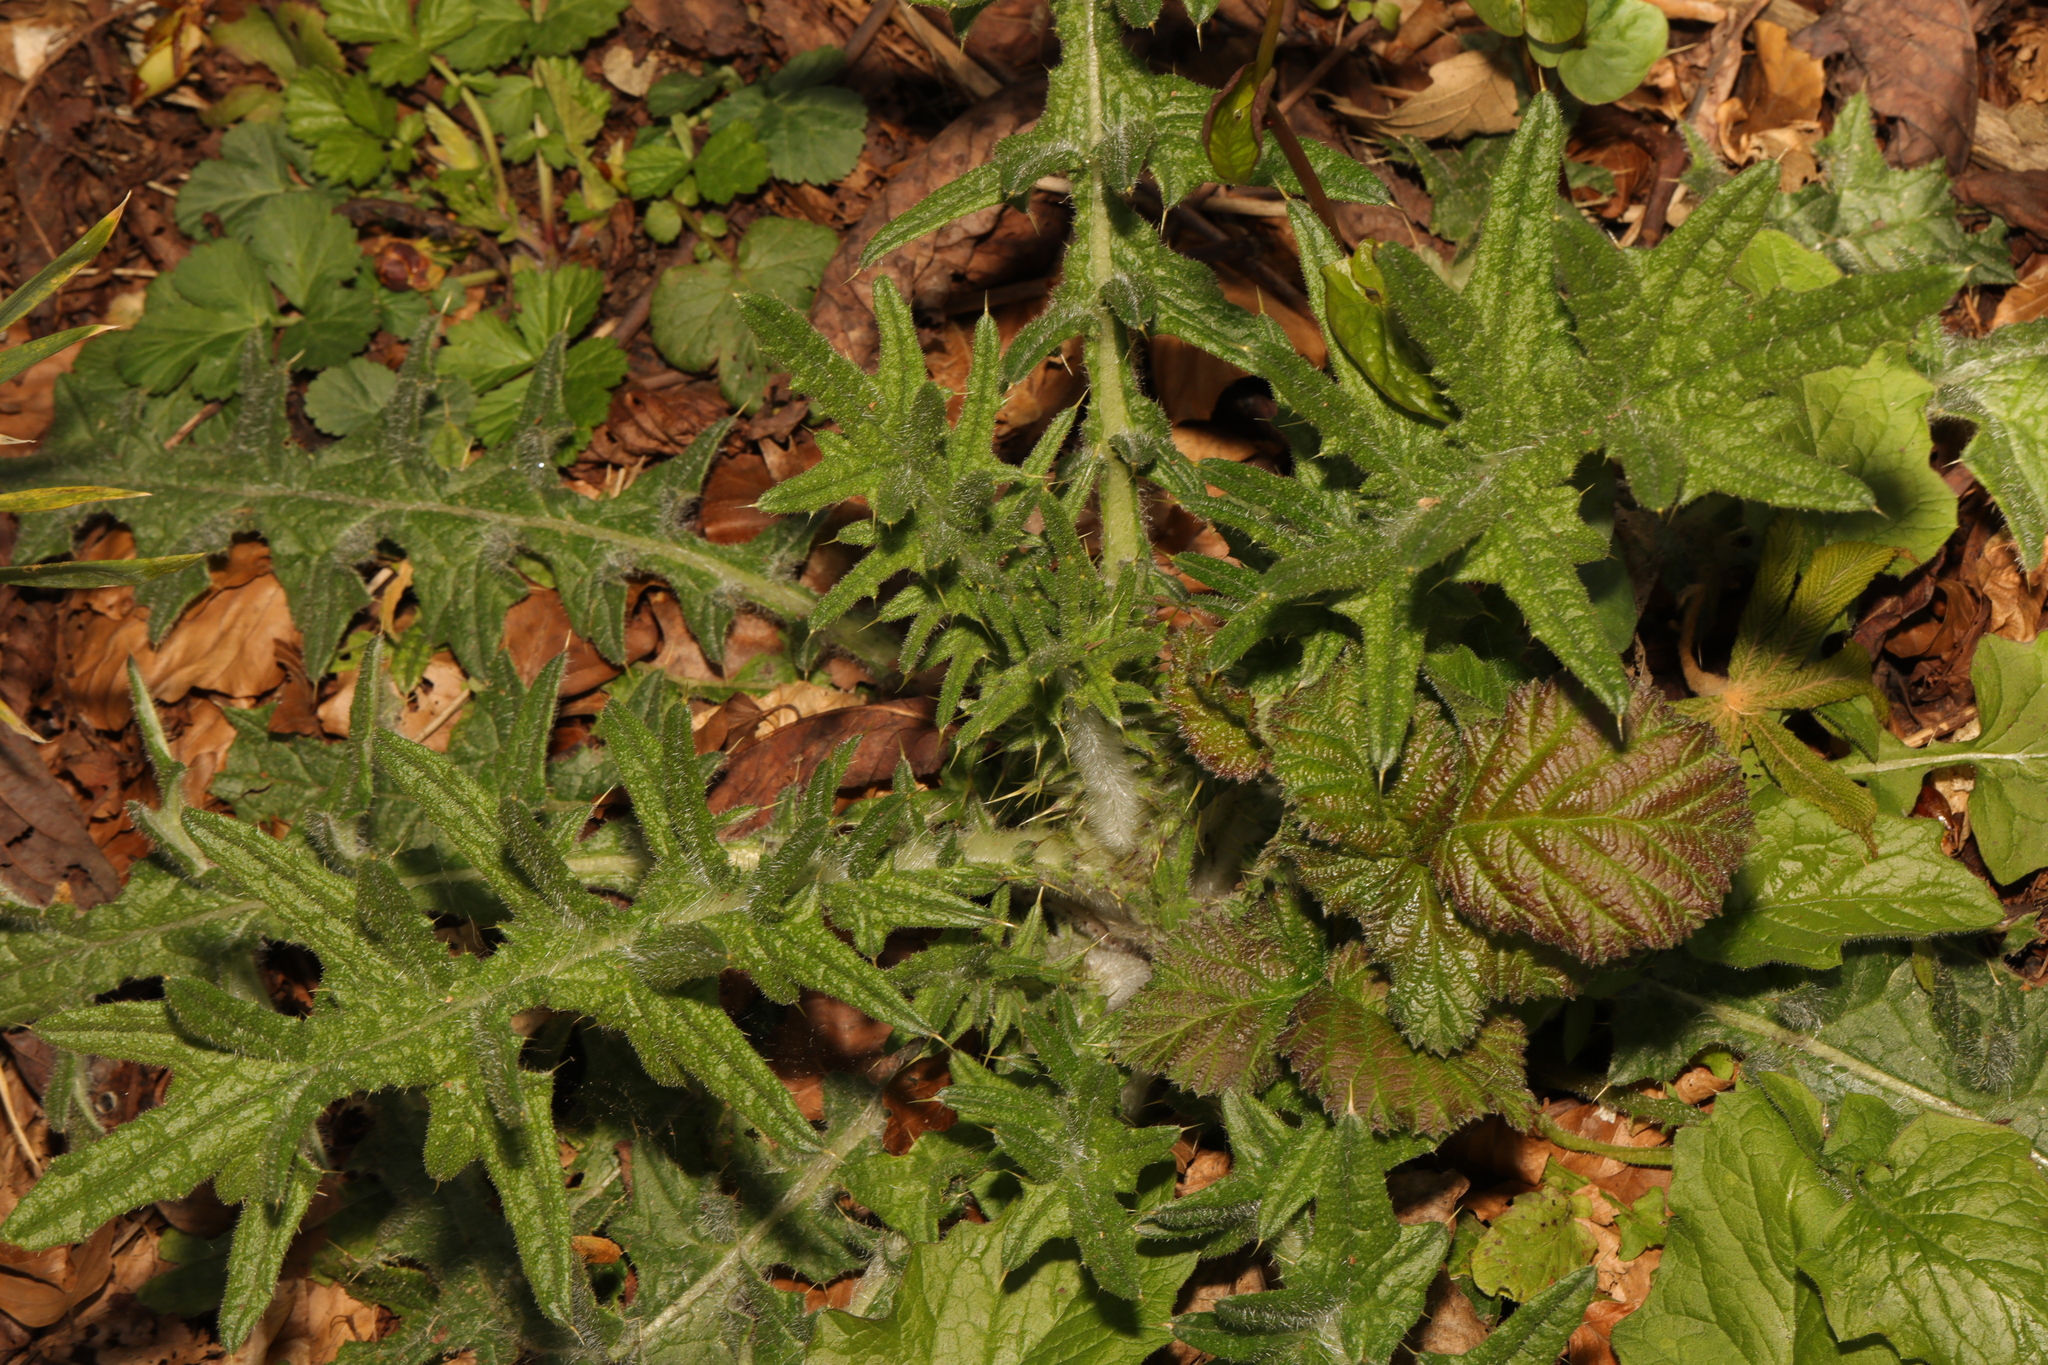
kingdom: Plantae
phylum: Tracheophyta
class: Magnoliopsida
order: Asterales
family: Asteraceae
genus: Cirsium
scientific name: Cirsium vulgare
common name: Bull thistle
